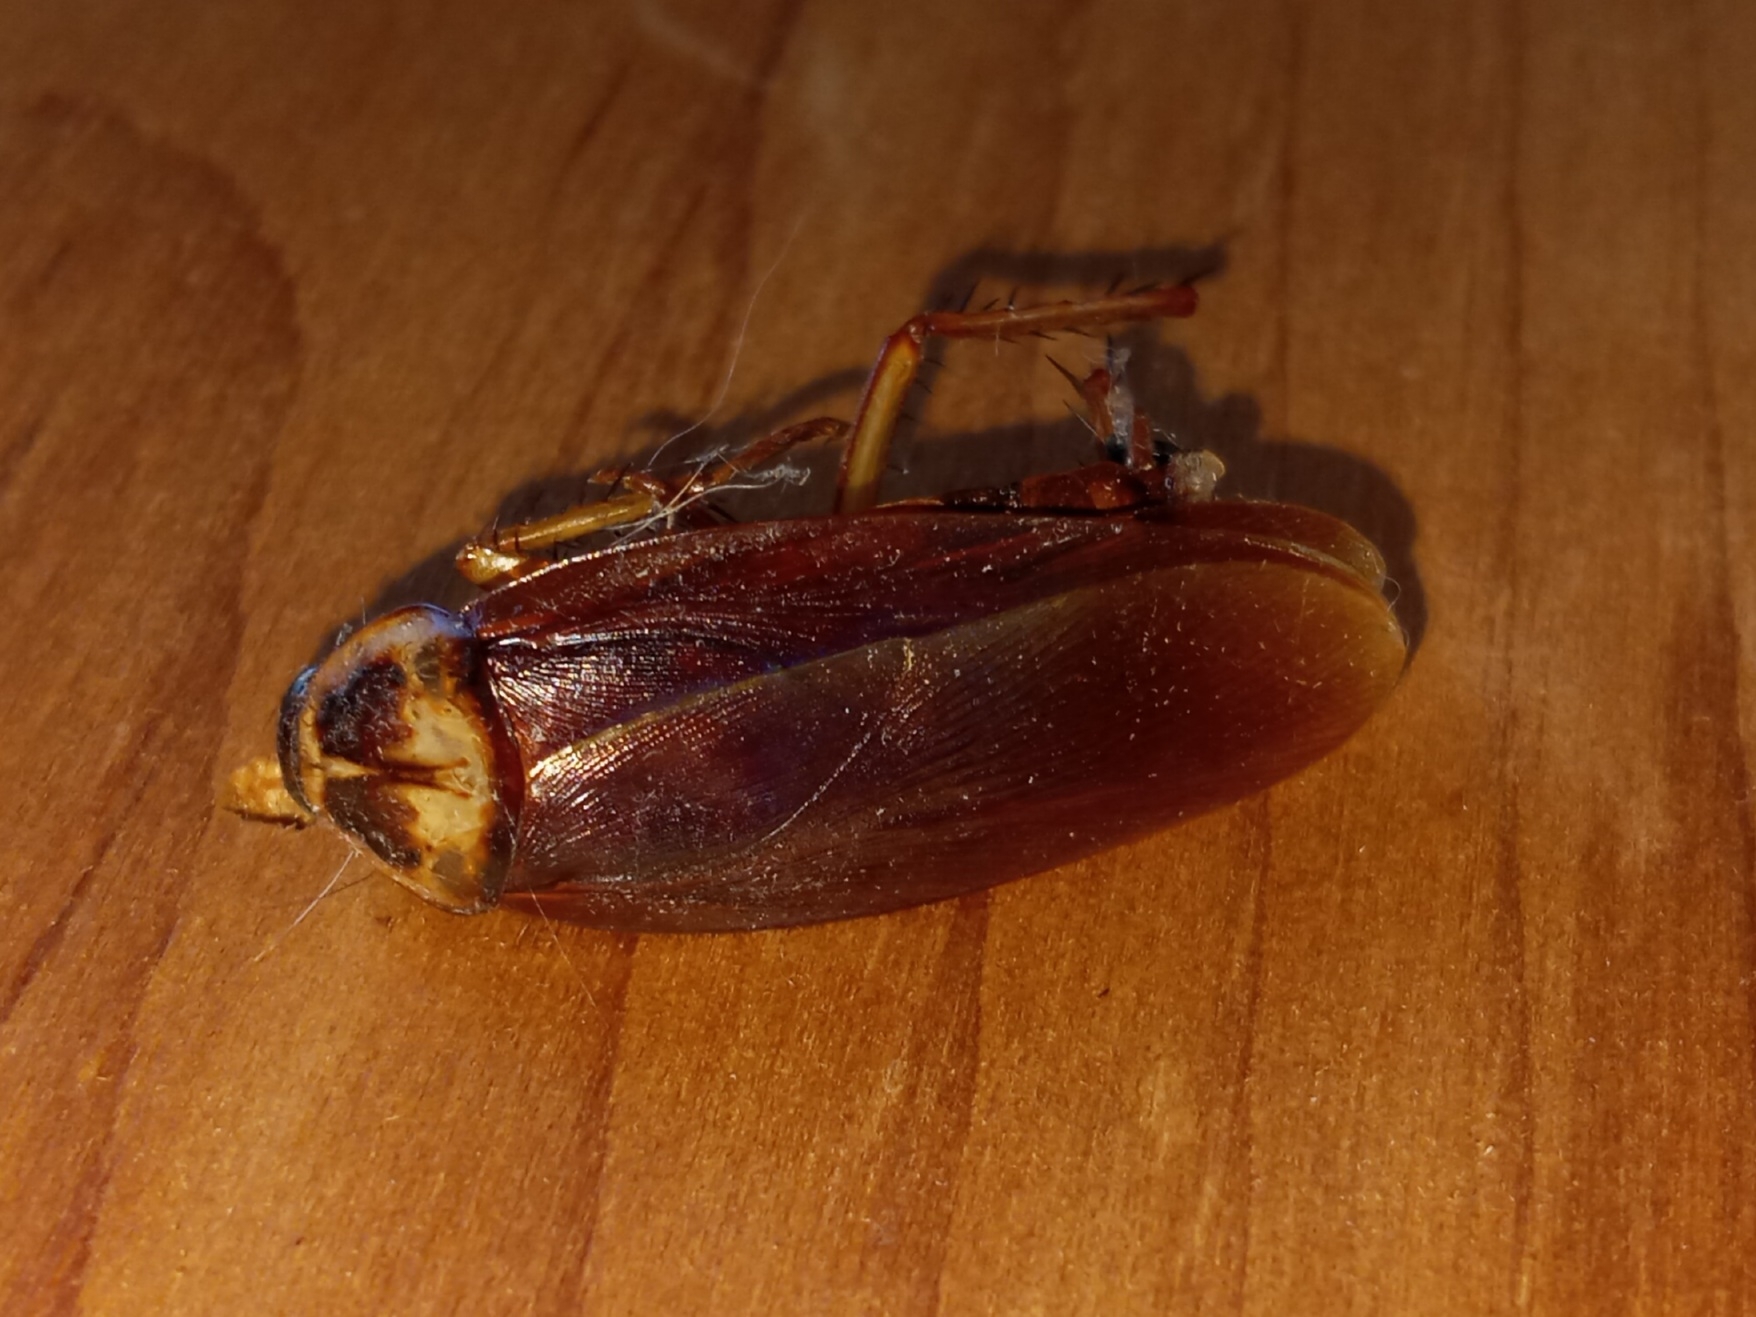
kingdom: Animalia
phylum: Arthropoda
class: Insecta
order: Blattodea
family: Blattidae
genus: Periplaneta
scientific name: Periplaneta americana
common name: American cockroach
